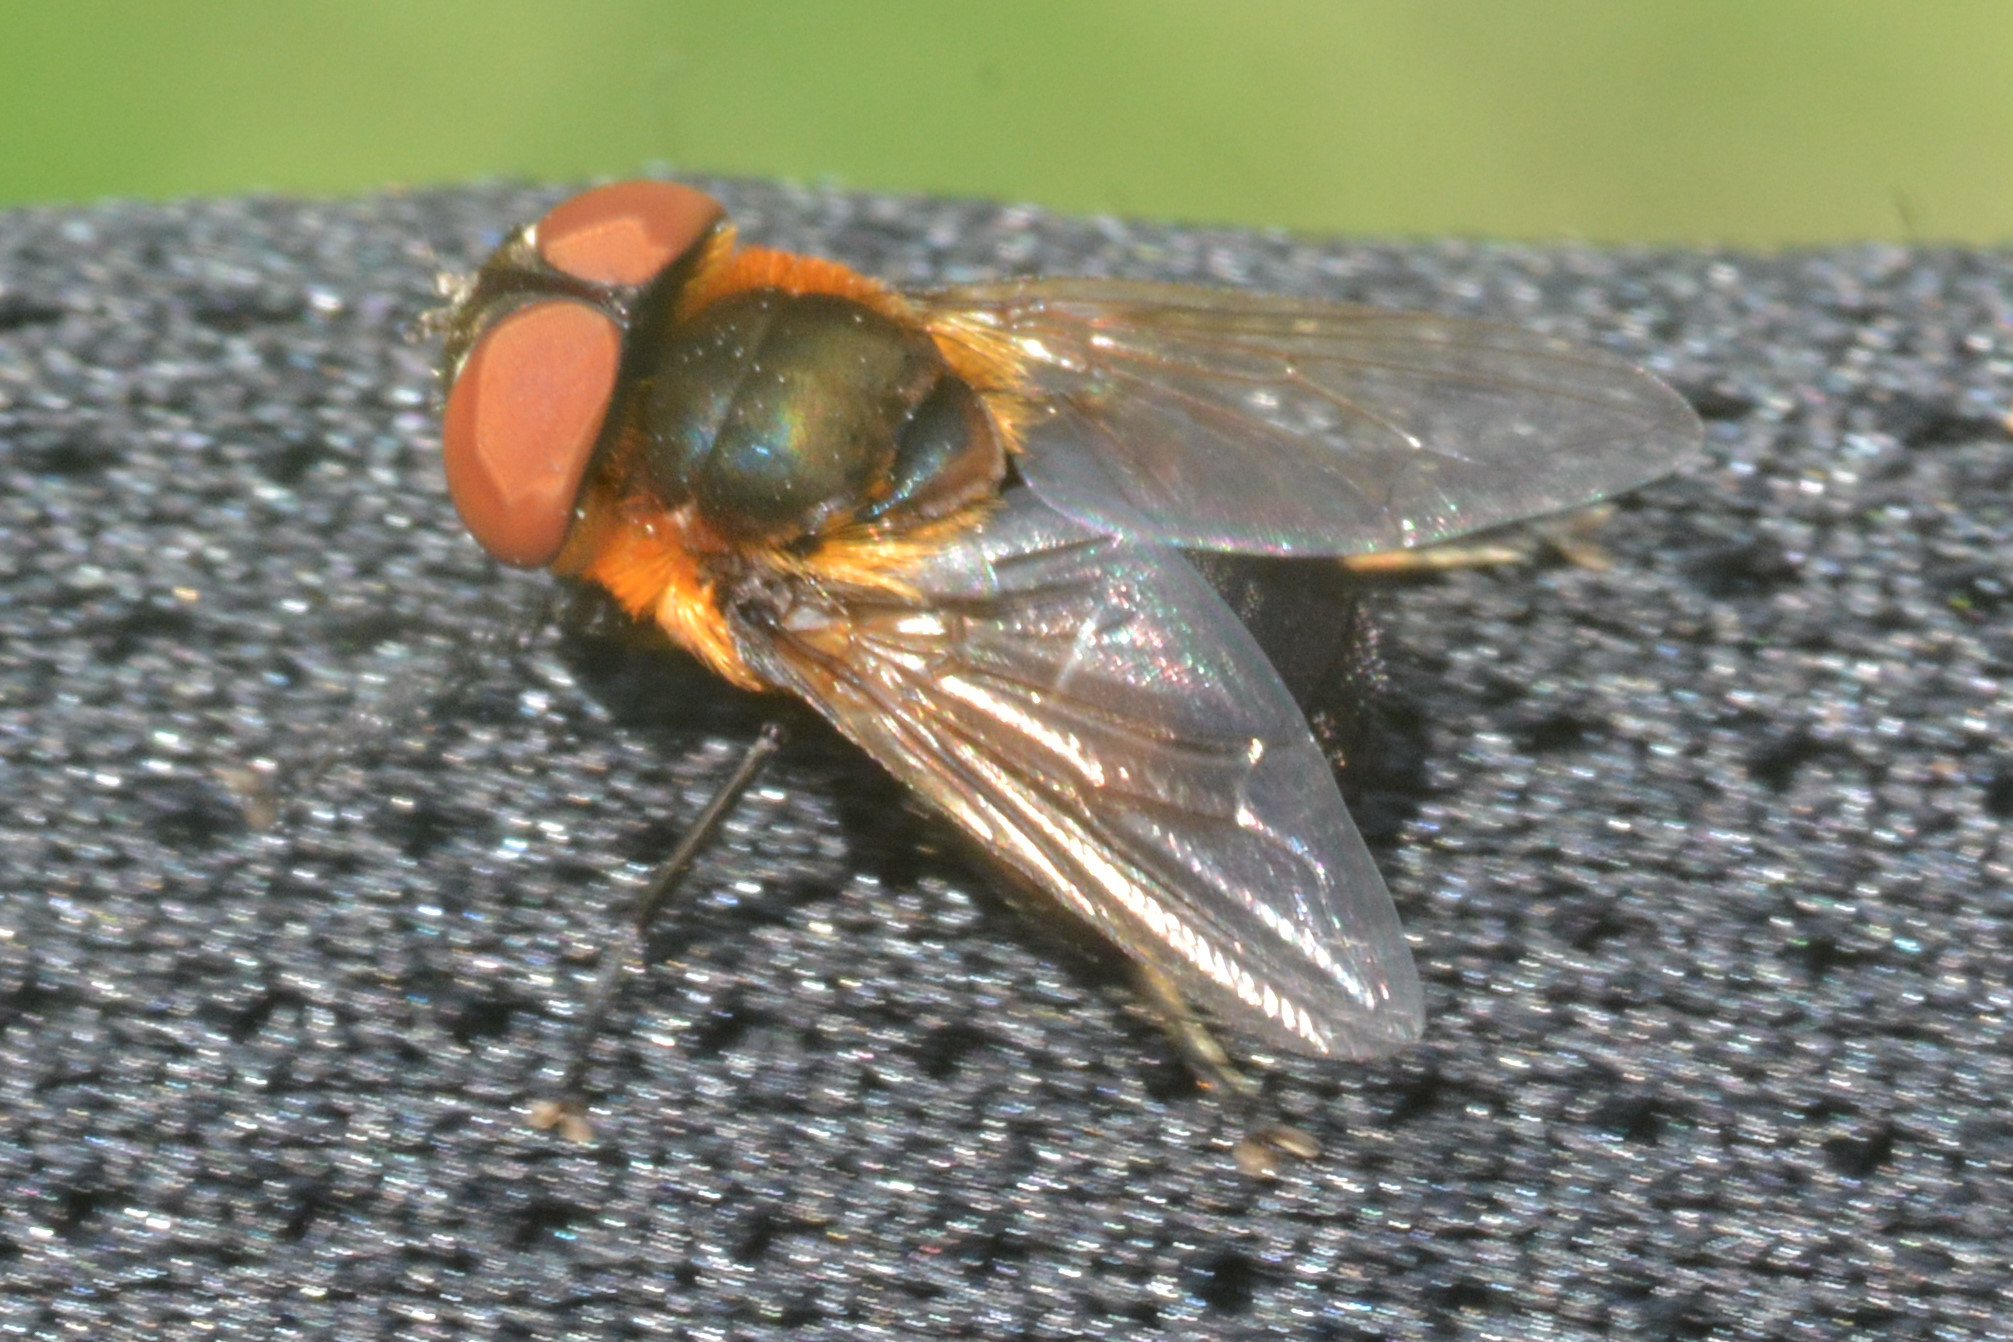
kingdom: Animalia
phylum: Arthropoda
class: Insecta
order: Diptera
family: Tachinidae
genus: Phasia
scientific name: Phasia hemiptera
